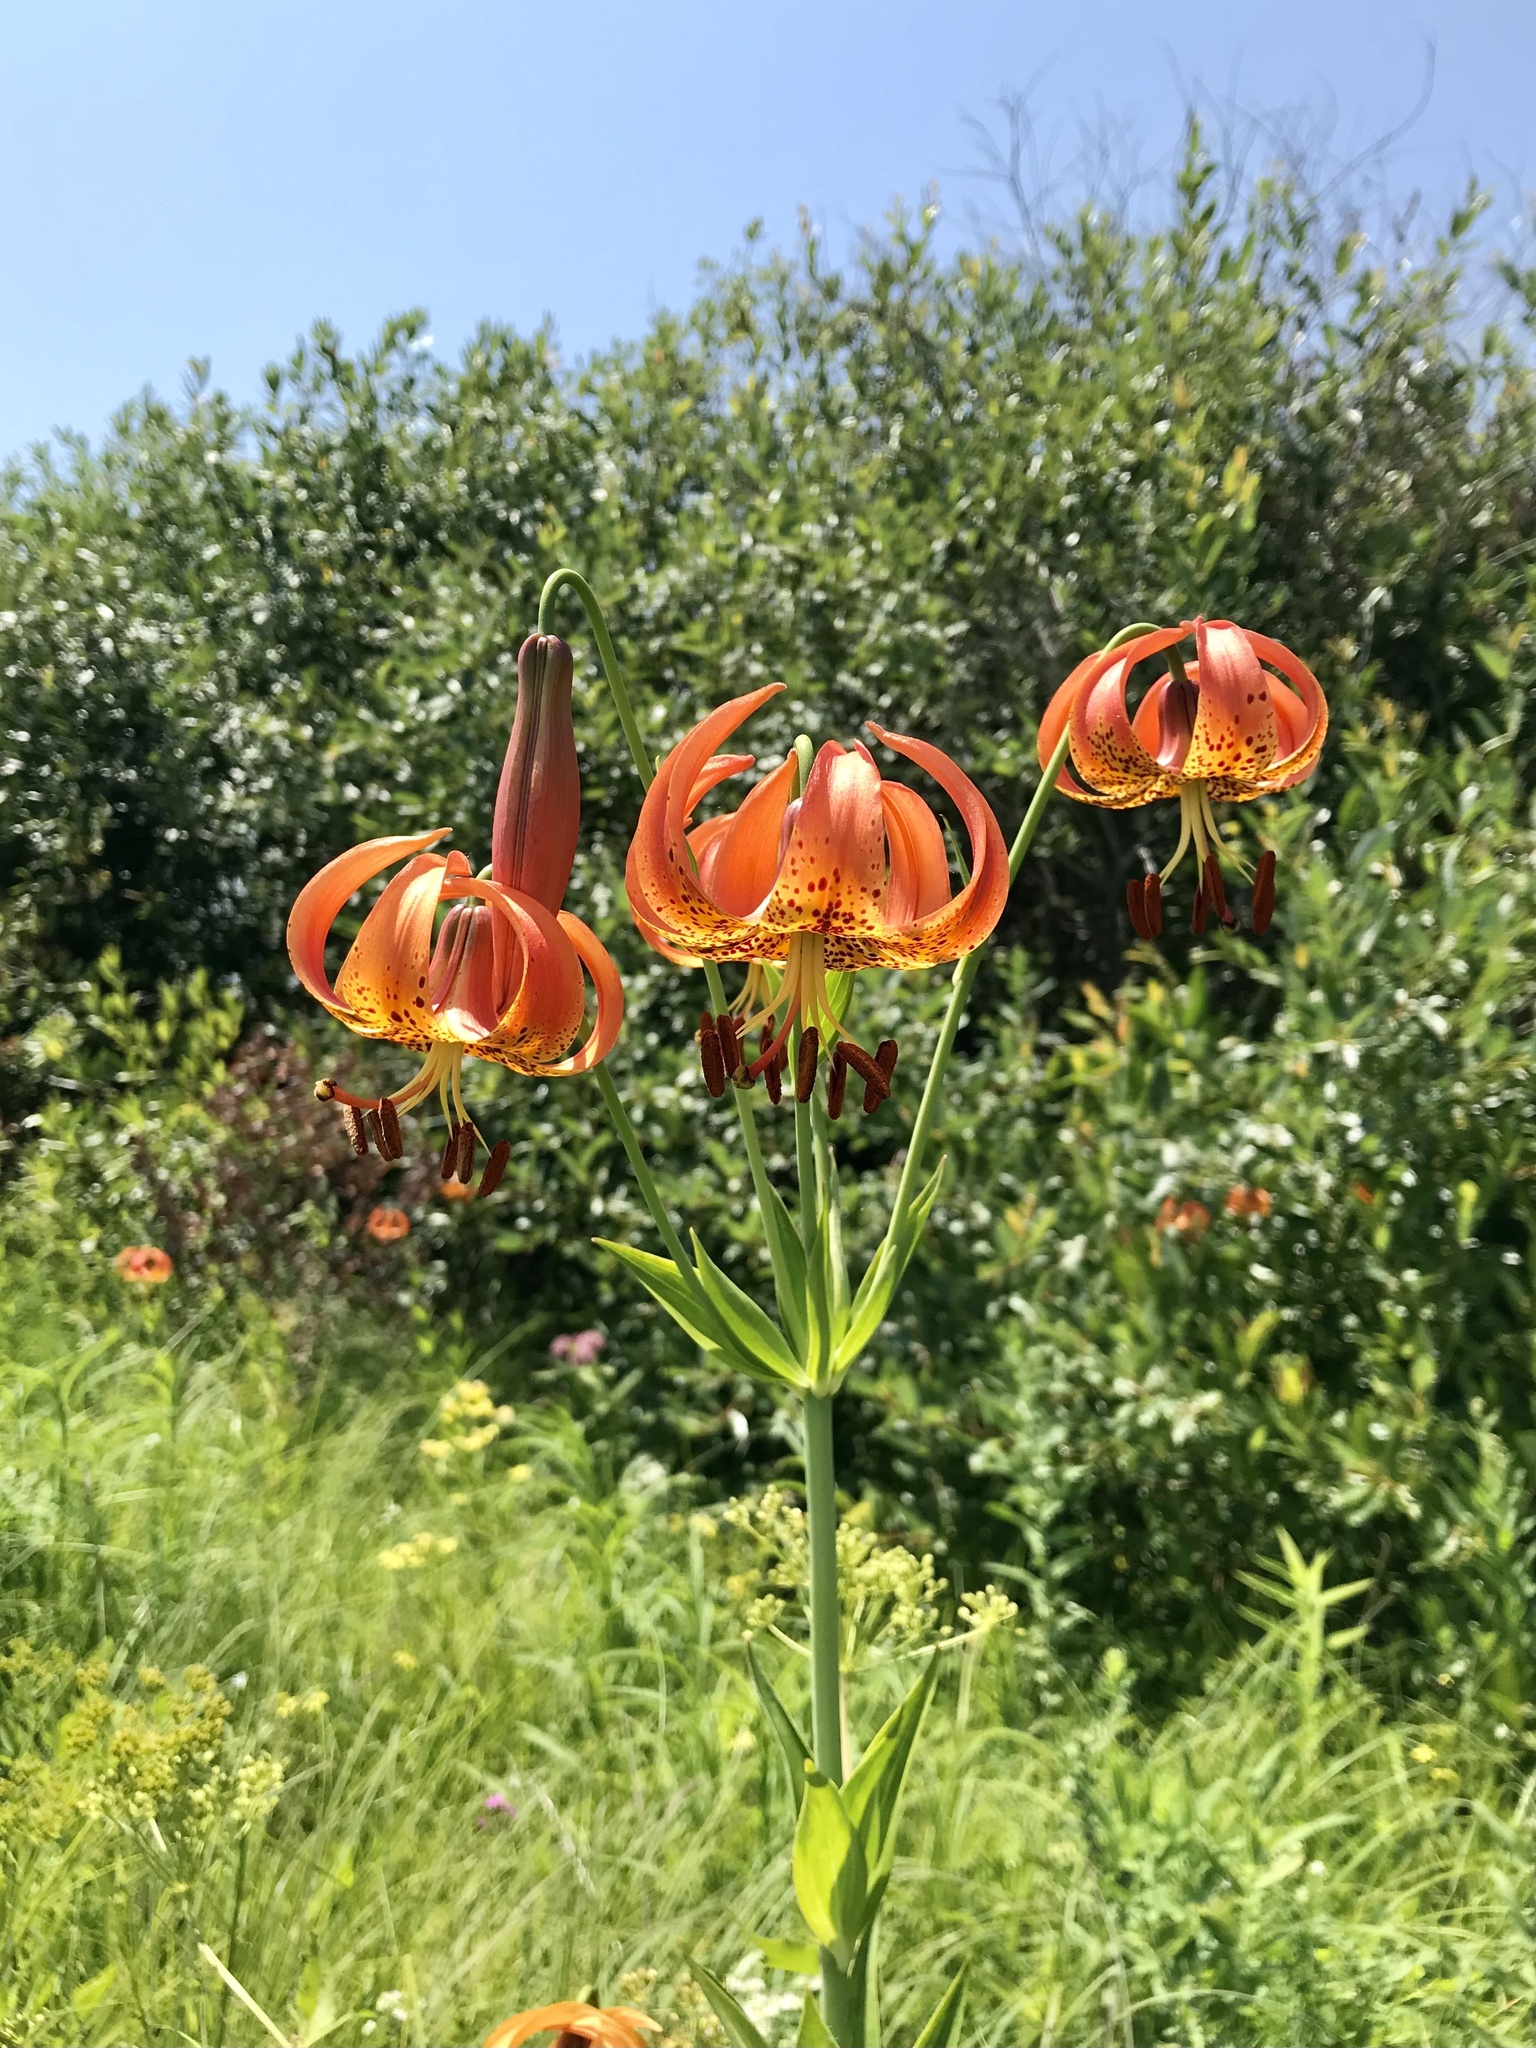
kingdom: Plantae
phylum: Tracheophyta
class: Liliopsida
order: Liliales
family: Liliaceae
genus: Lilium
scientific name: Lilium michiganense
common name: Michigan lily
